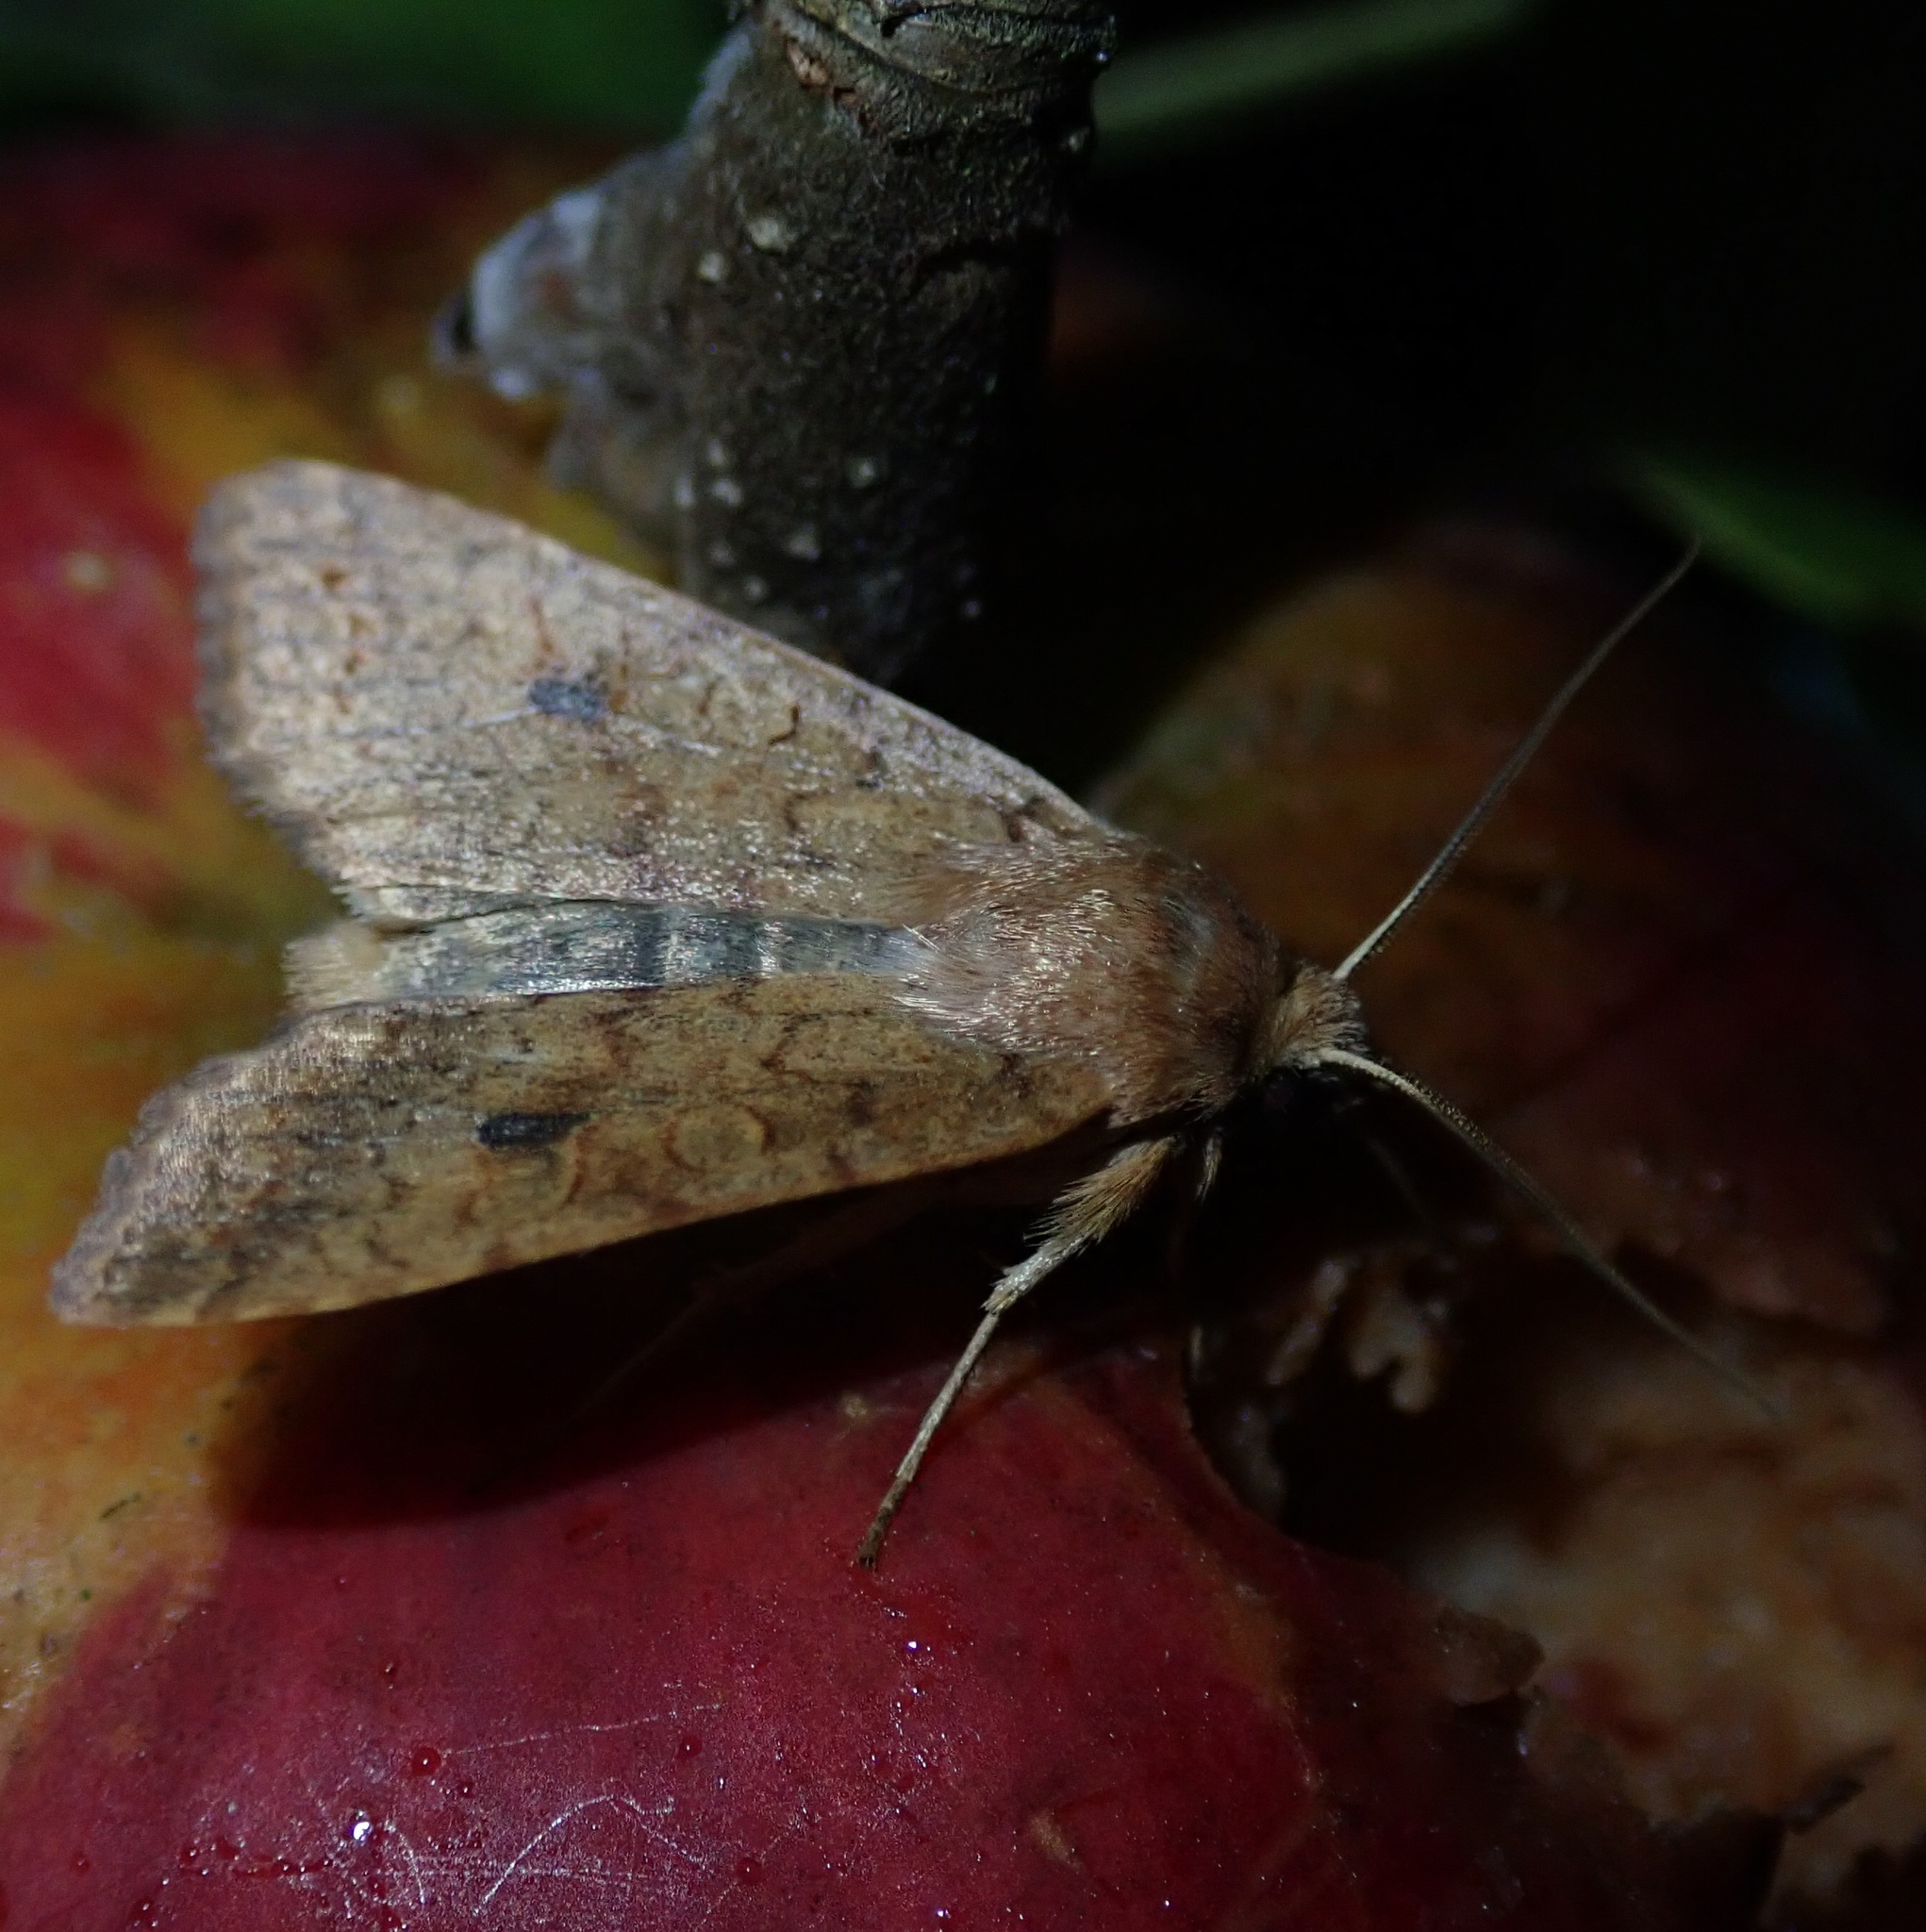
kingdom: Animalia
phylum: Arthropoda
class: Insecta
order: Lepidoptera
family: Noctuidae
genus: Sunira
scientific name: Sunira circellaris
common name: Brick
